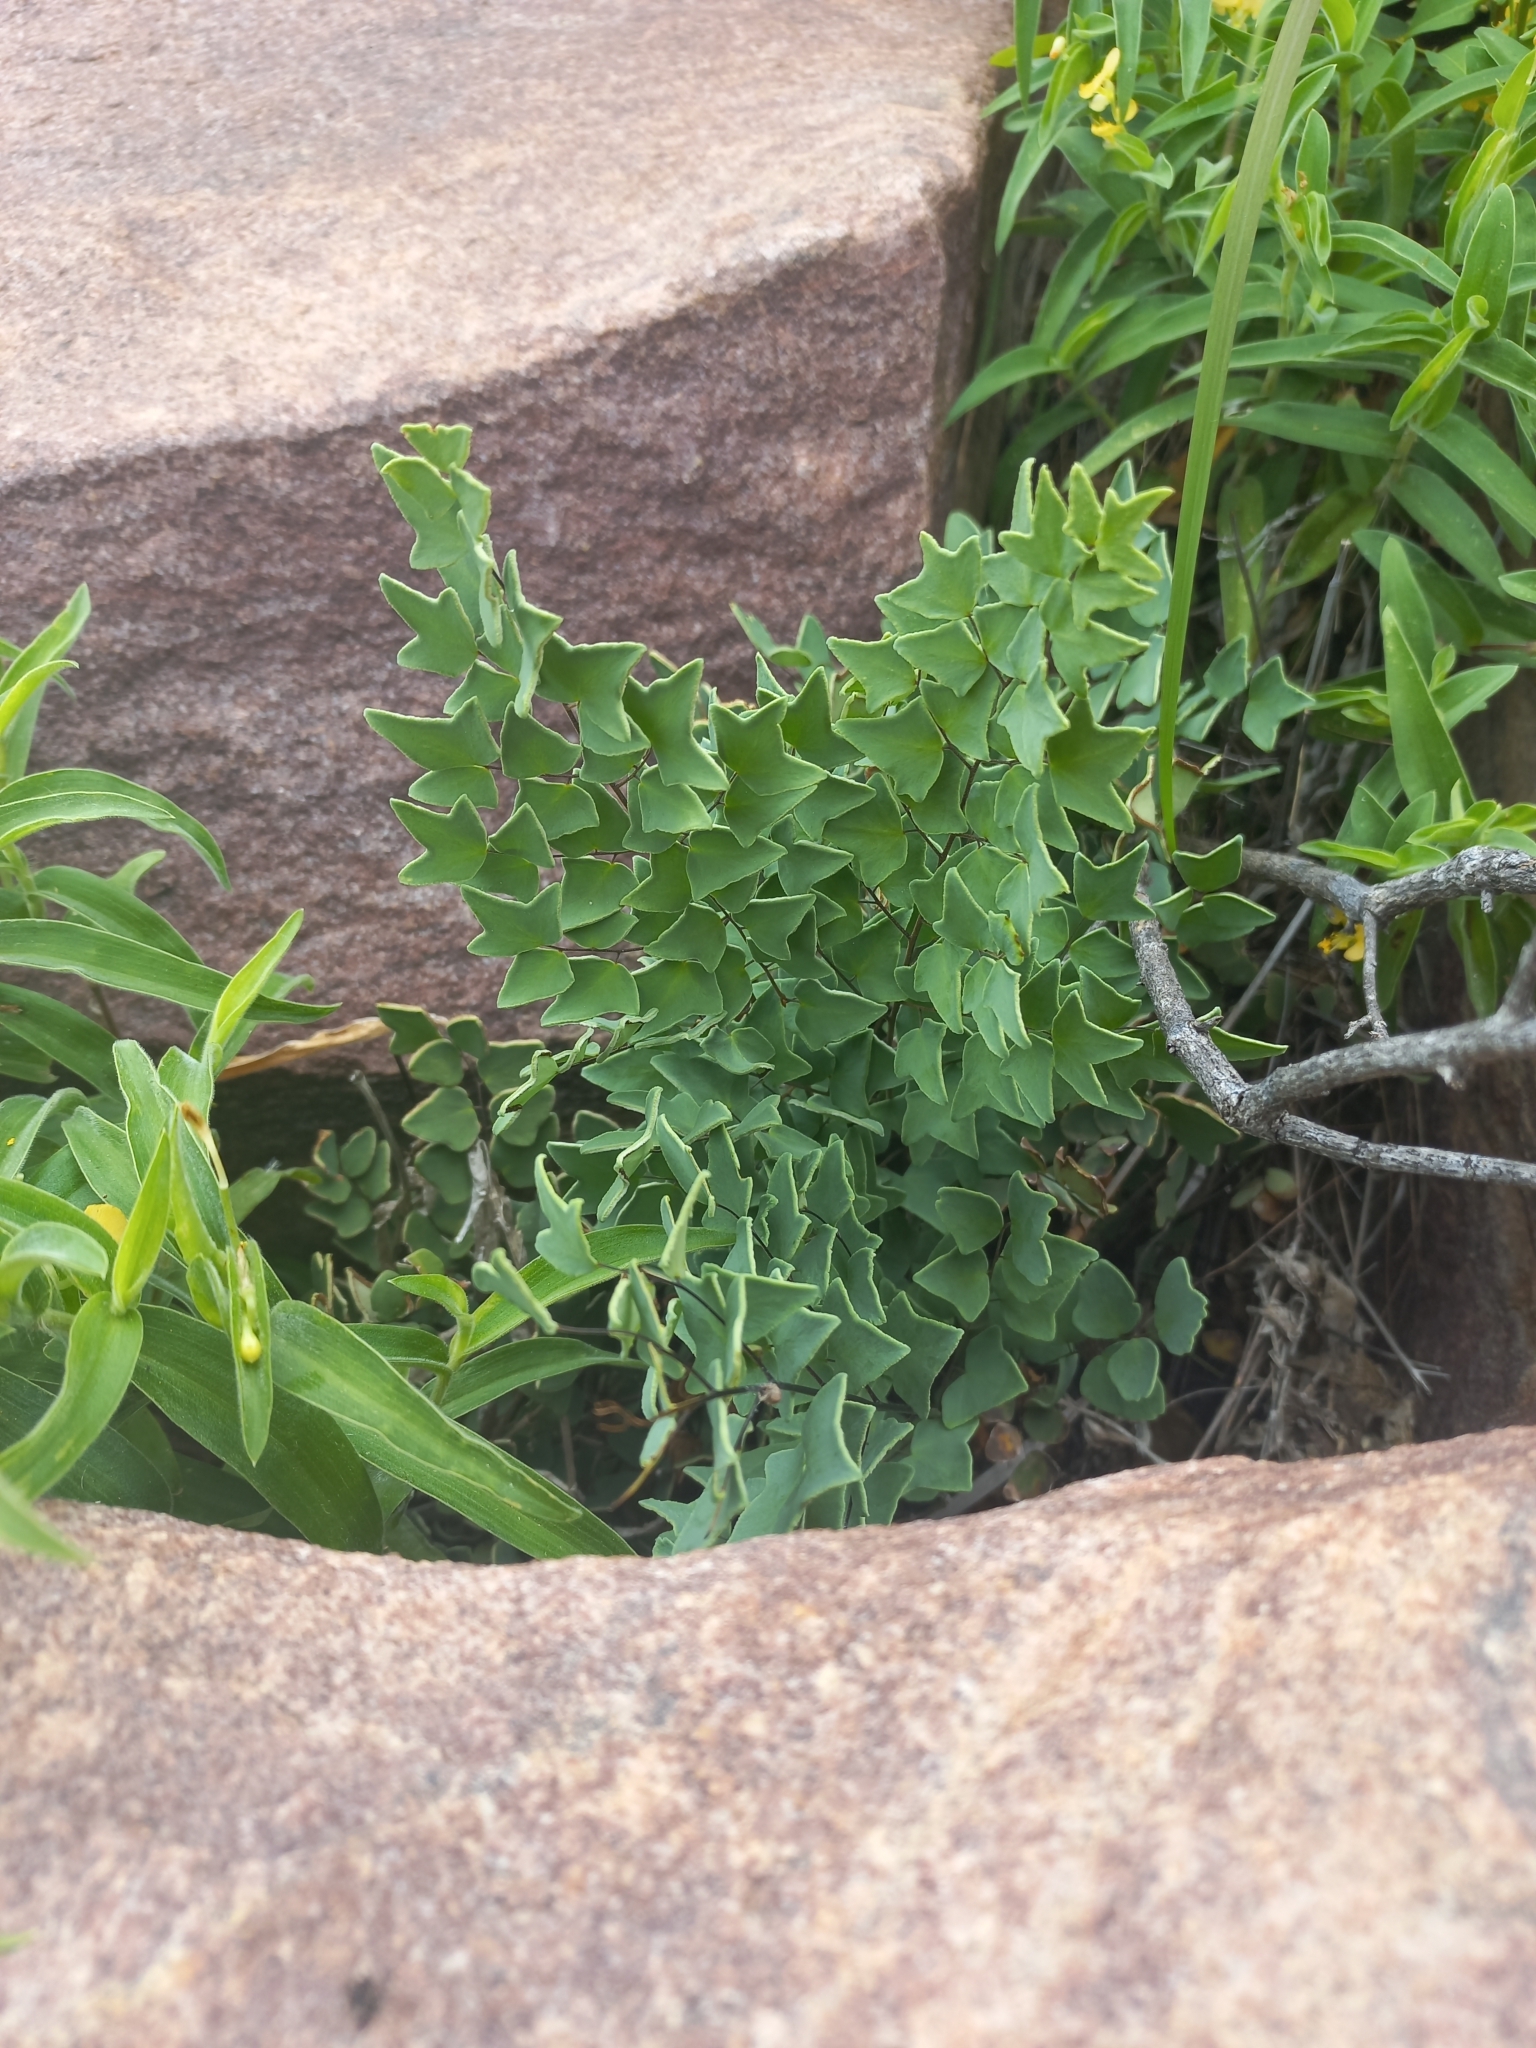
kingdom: Plantae
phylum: Tracheophyta
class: Polypodiopsida
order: Polypodiales
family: Pteridaceae
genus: Pellaea
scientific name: Pellaea calomelanos
